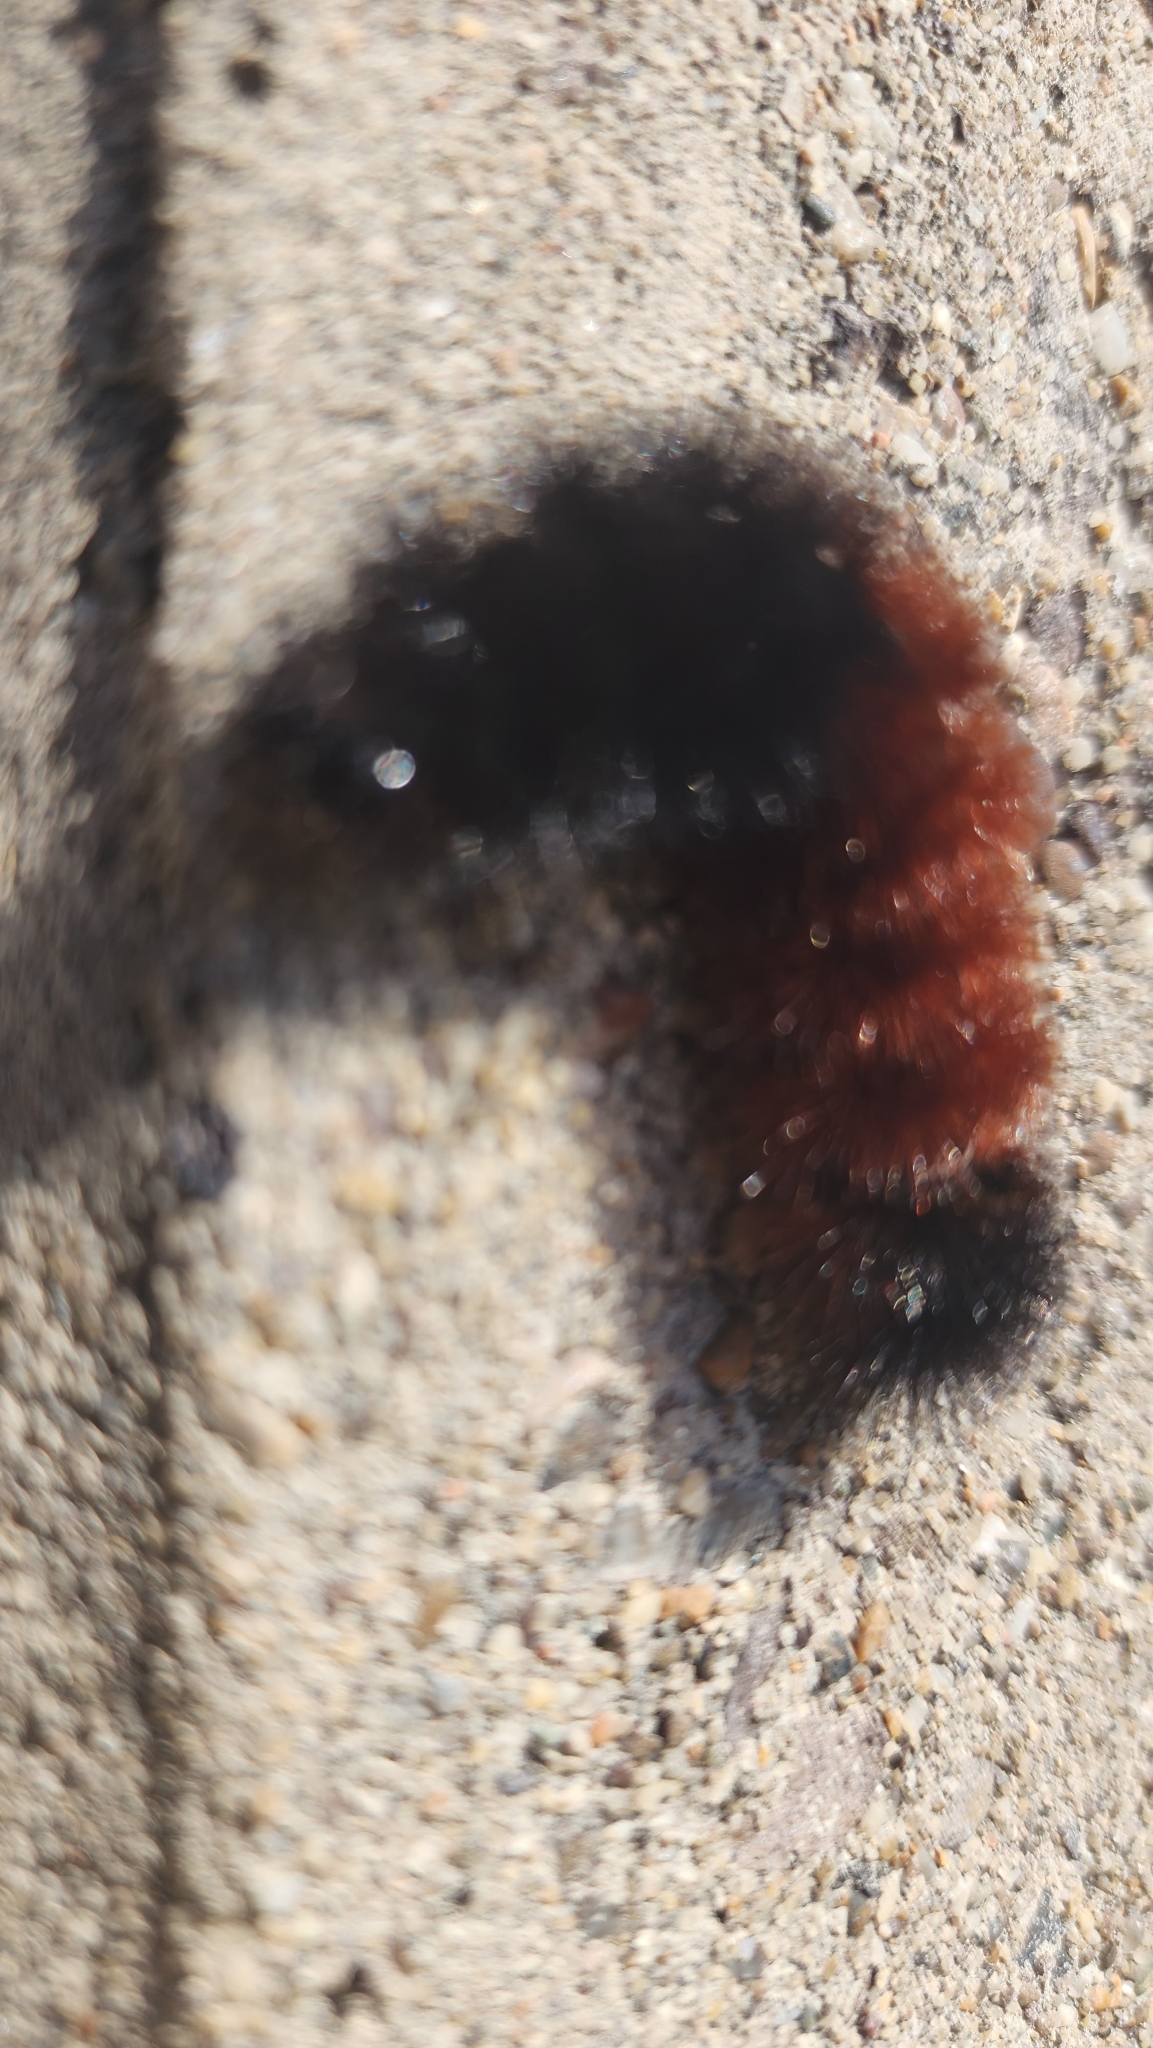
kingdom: Animalia
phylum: Arthropoda
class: Insecta
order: Lepidoptera
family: Erebidae
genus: Pyrrharctia
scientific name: Pyrrharctia isabella
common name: Isabella tiger moth
